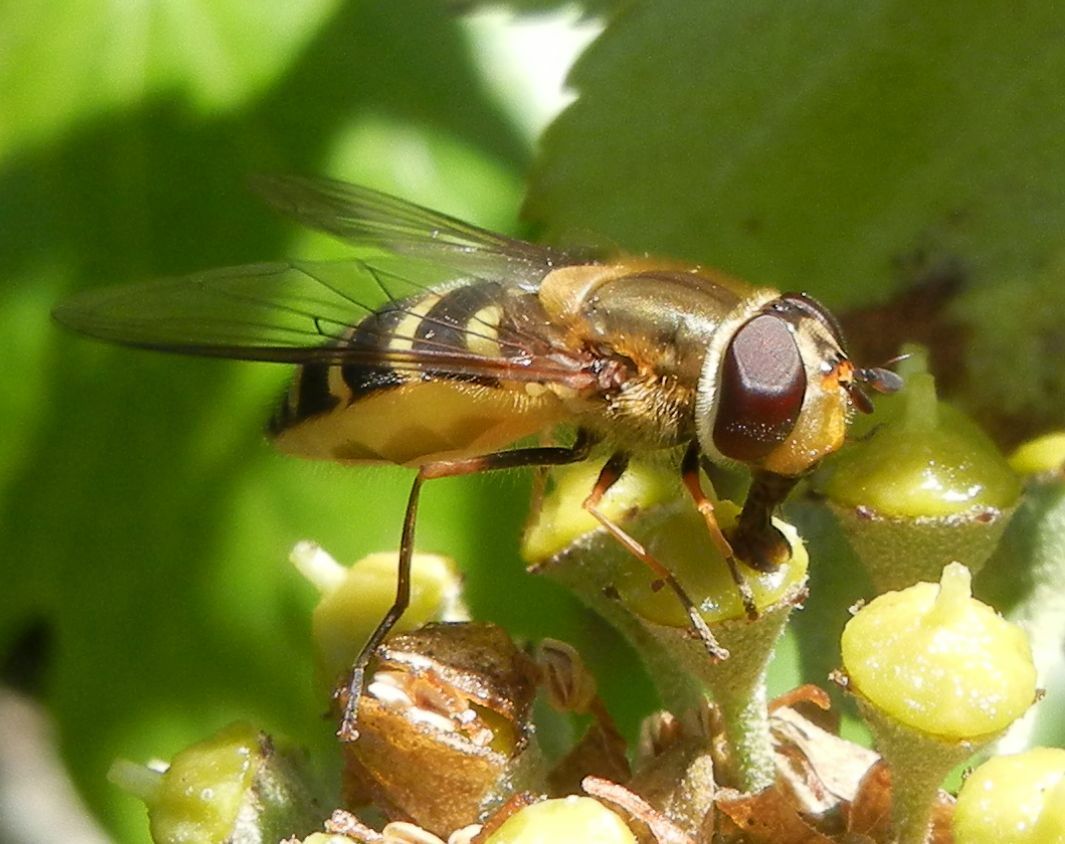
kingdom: Animalia
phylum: Arthropoda
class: Insecta
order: Diptera
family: Syrphidae
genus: Syrphus
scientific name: Syrphus torvus
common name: Hairy-eyed flower fly
